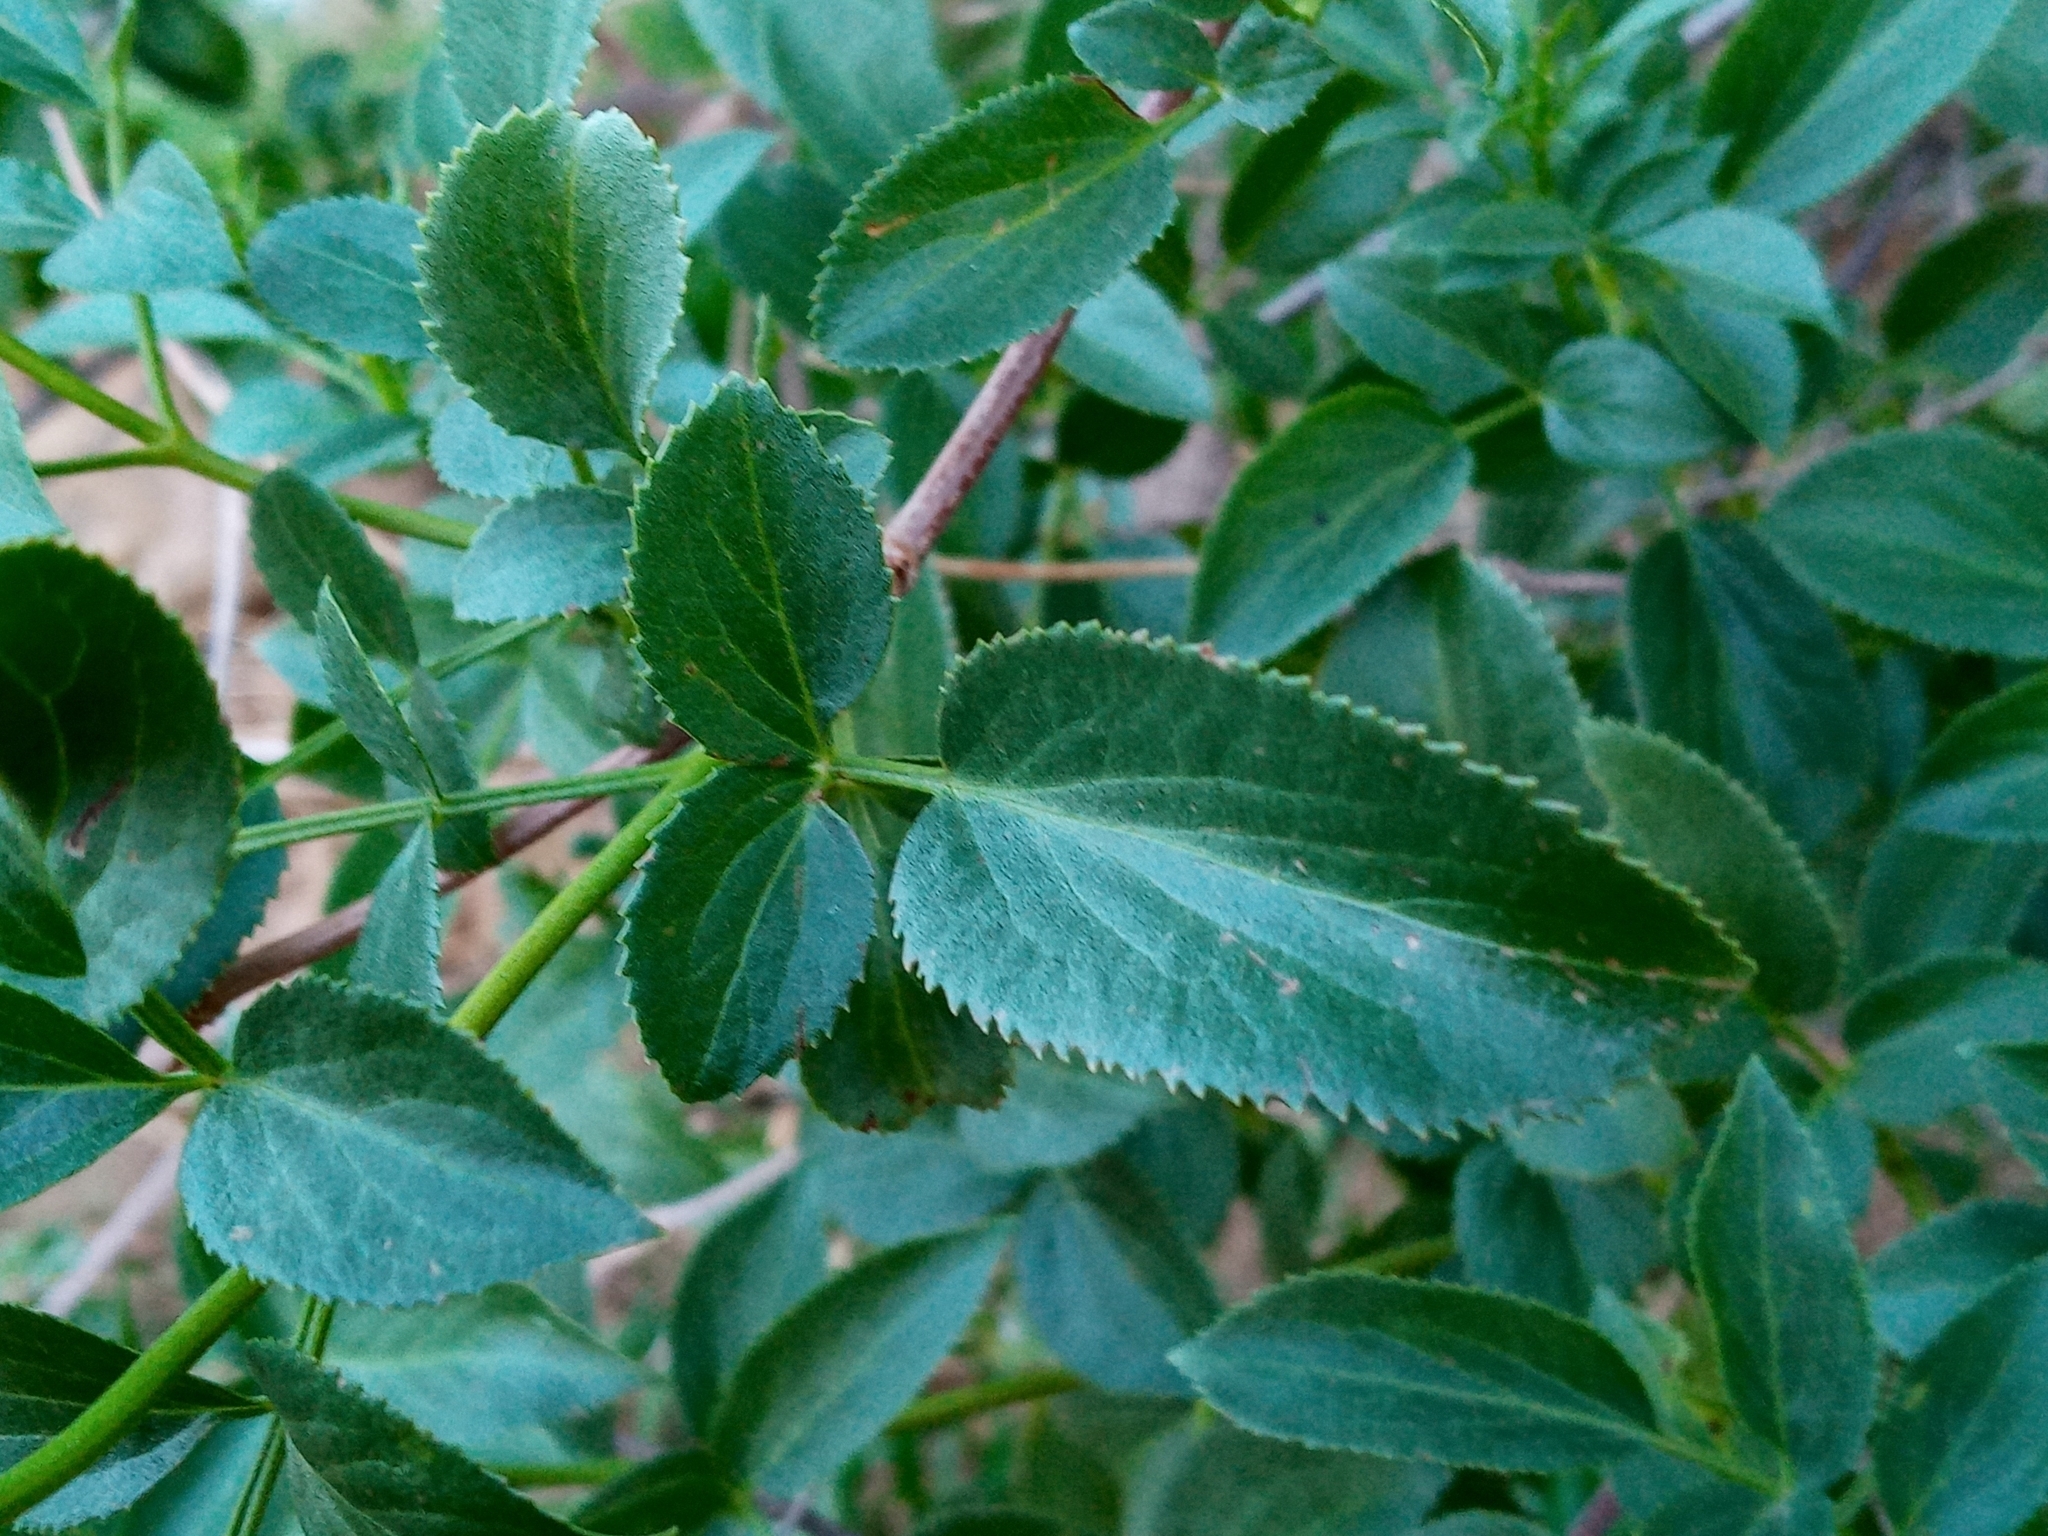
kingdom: Plantae
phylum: Tracheophyta
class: Magnoliopsida
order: Dipsacales
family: Viburnaceae
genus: Sambucus
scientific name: Sambucus cerulea
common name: Blue elder
